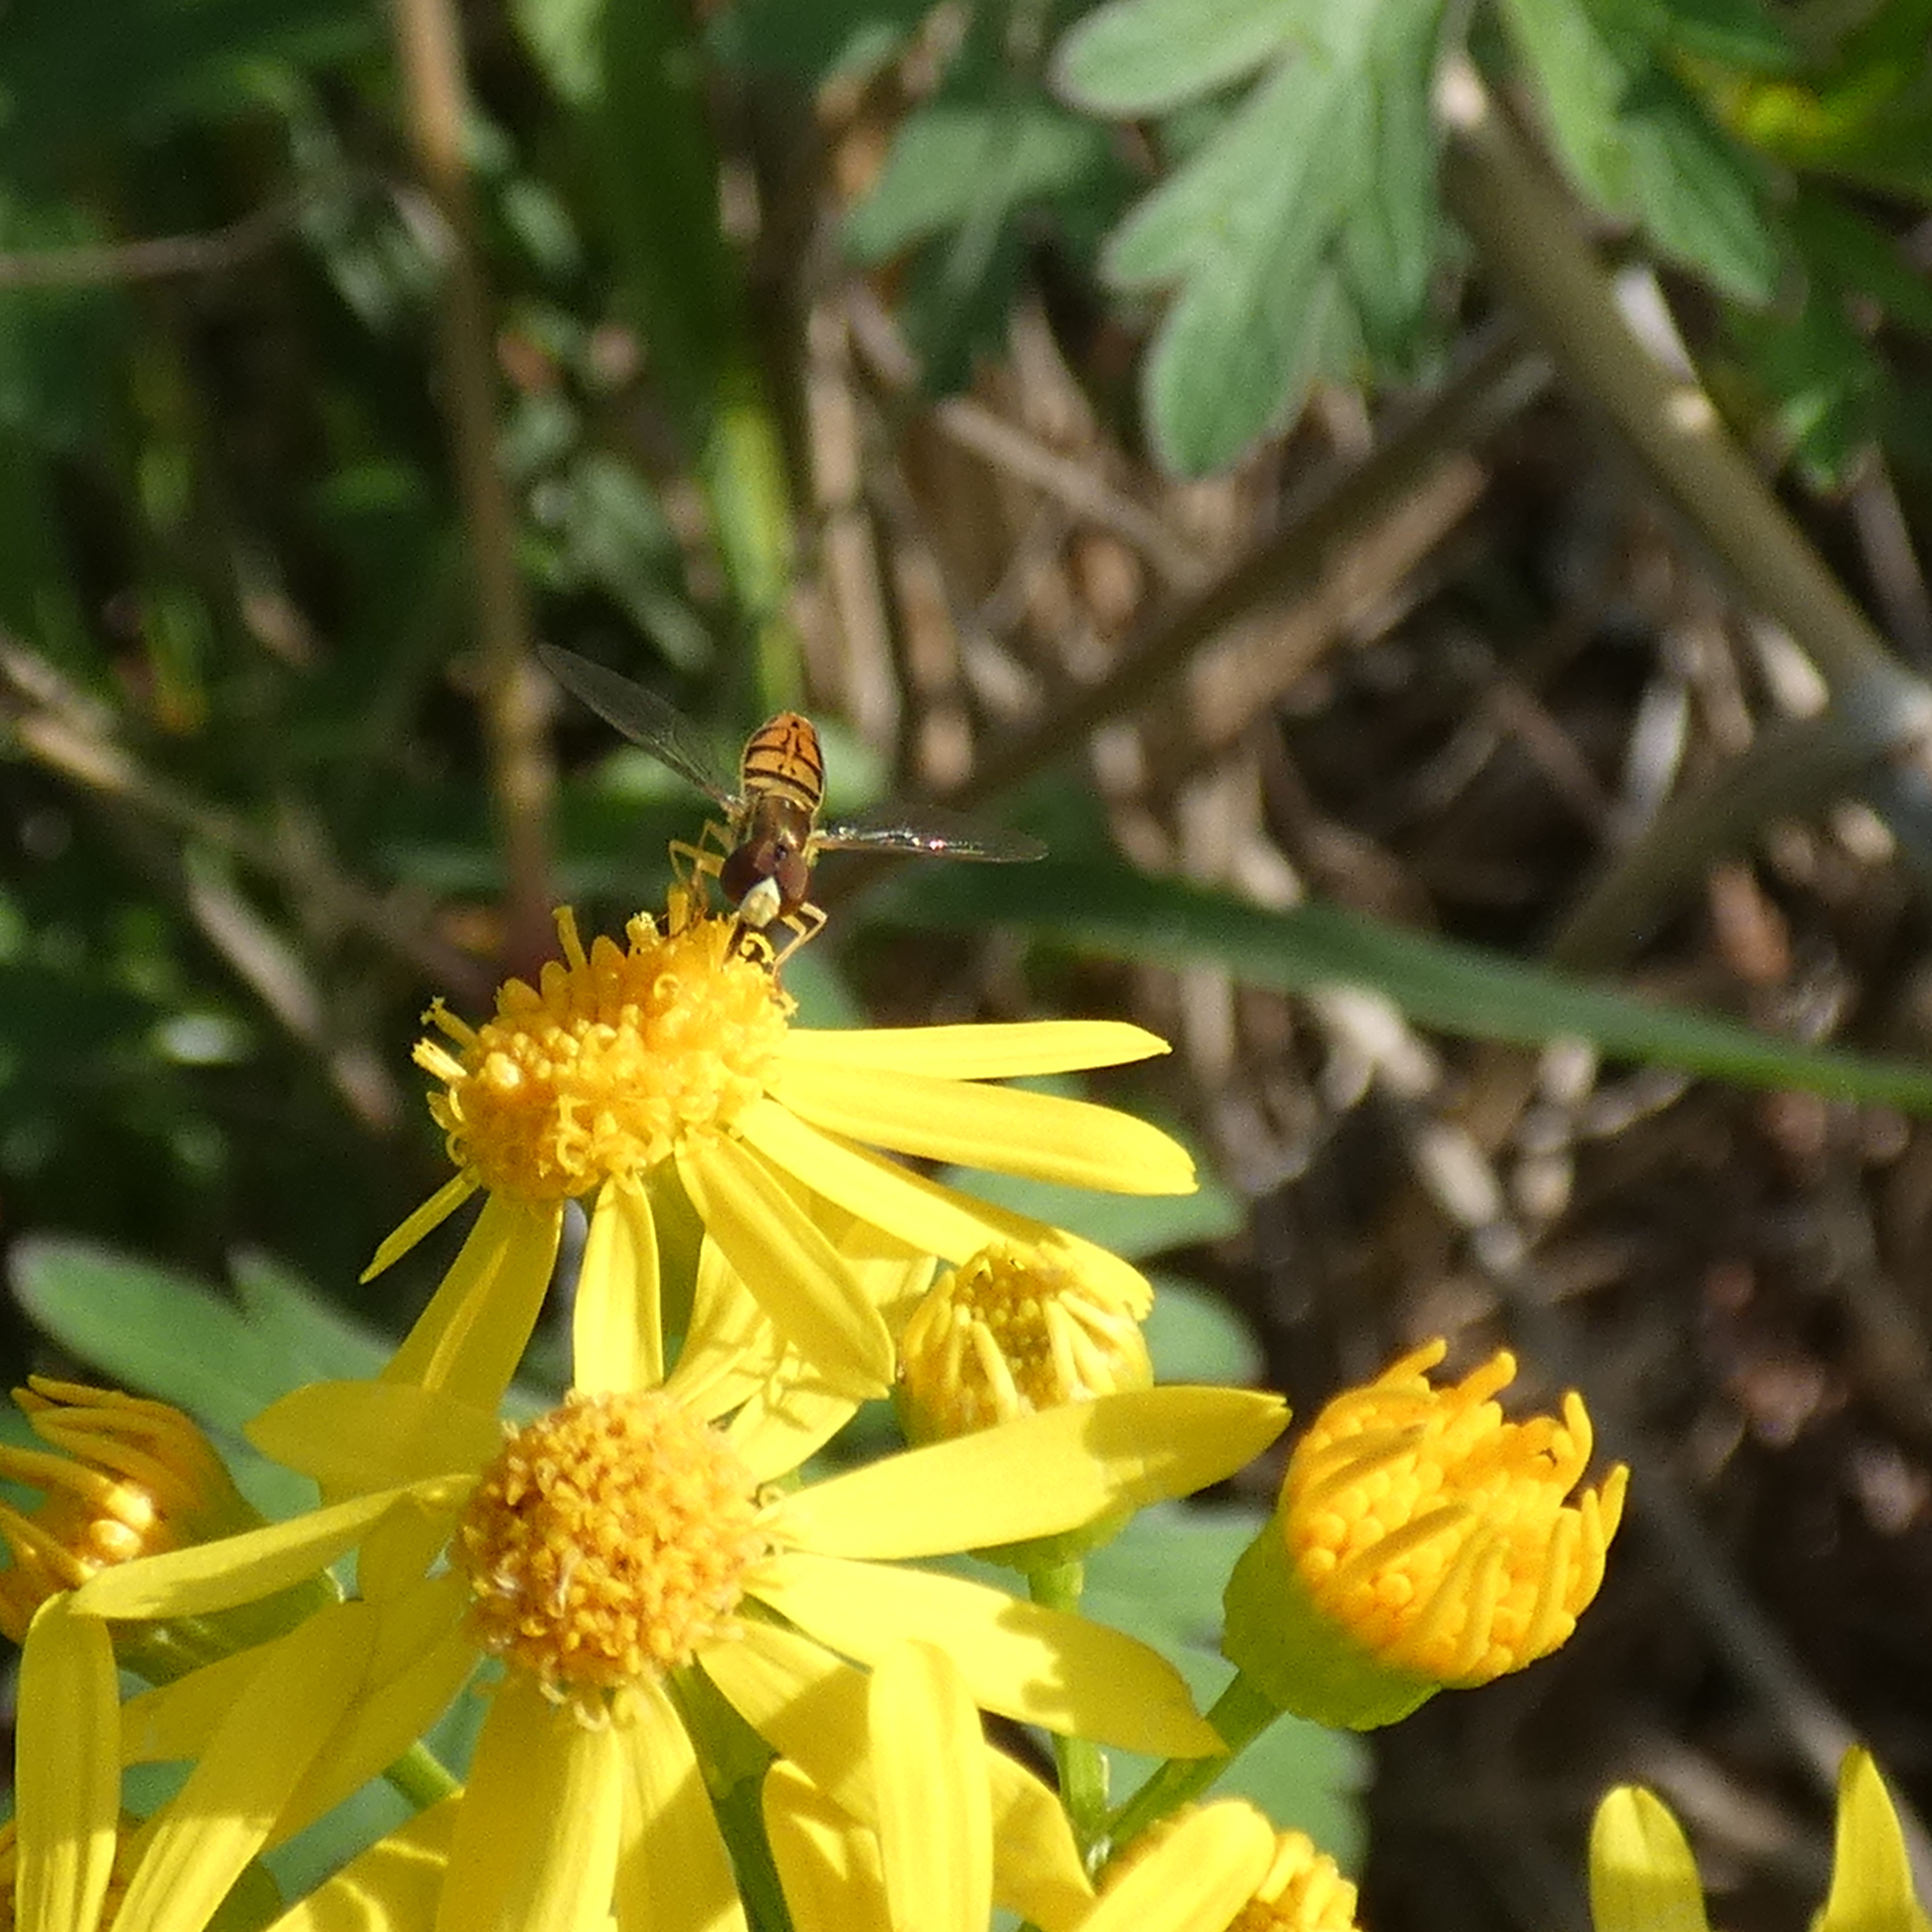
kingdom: Animalia
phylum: Arthropoda
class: Insecta
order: Diptera
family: Syrphidae
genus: Toxomerus
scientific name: Toxomerus marginatus
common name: Syrphid fly
